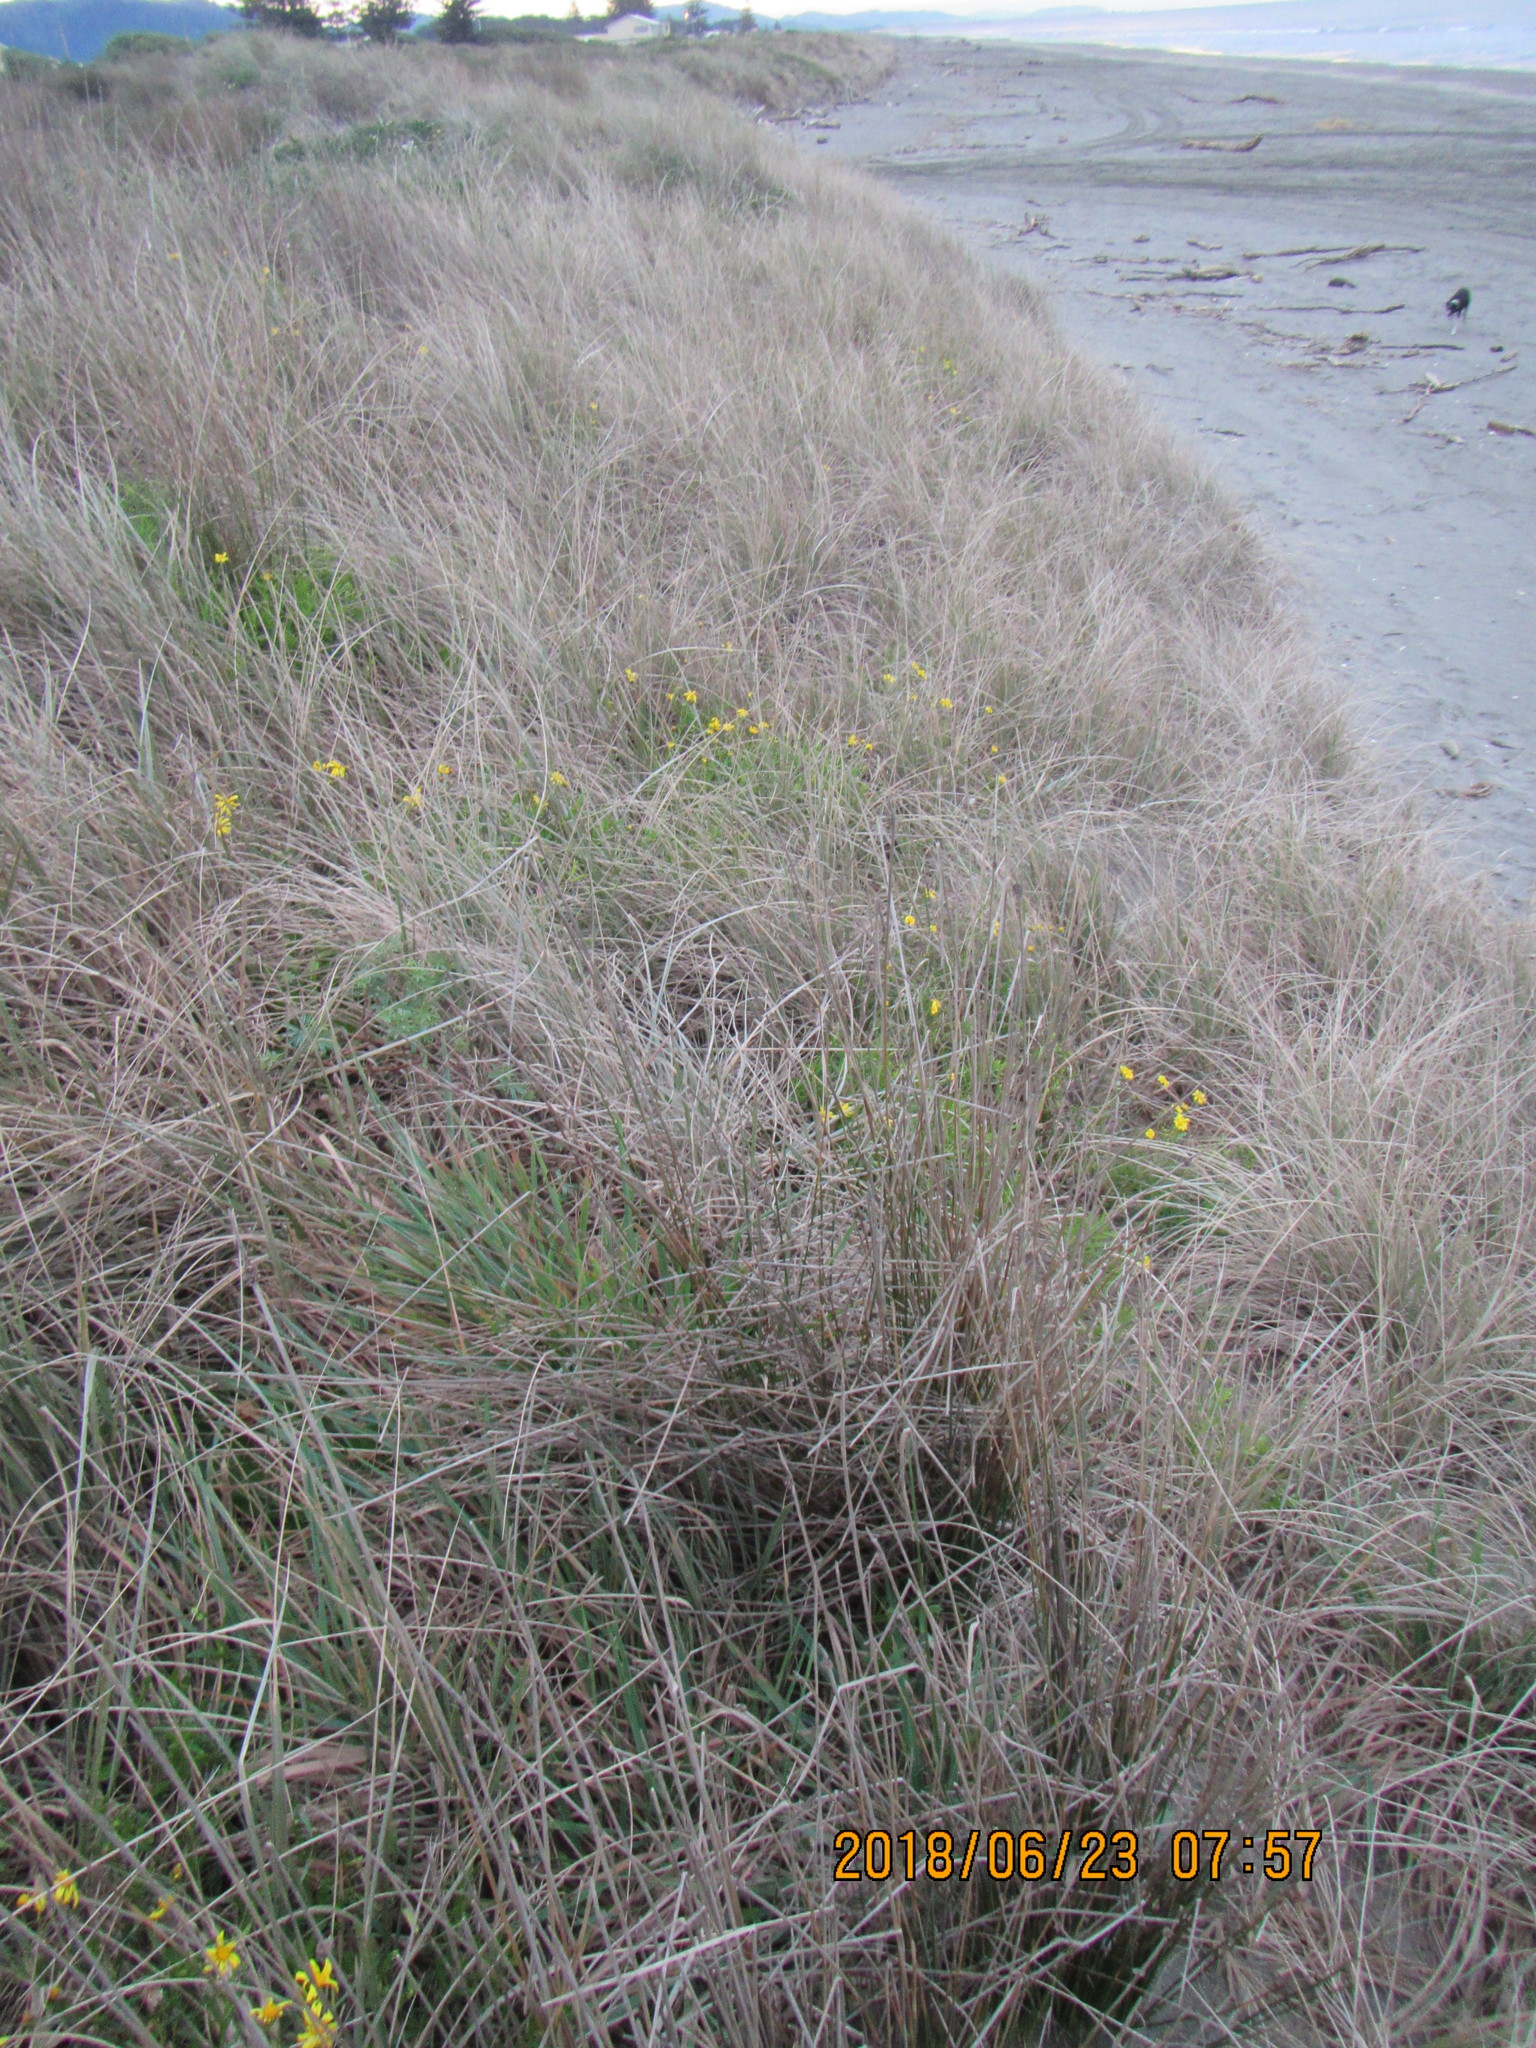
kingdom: Plantae
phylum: Tracheophyta
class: Magnoliopsida
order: Asterales
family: Asteraceae
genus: Senecio
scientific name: Senecio skirrhodon
